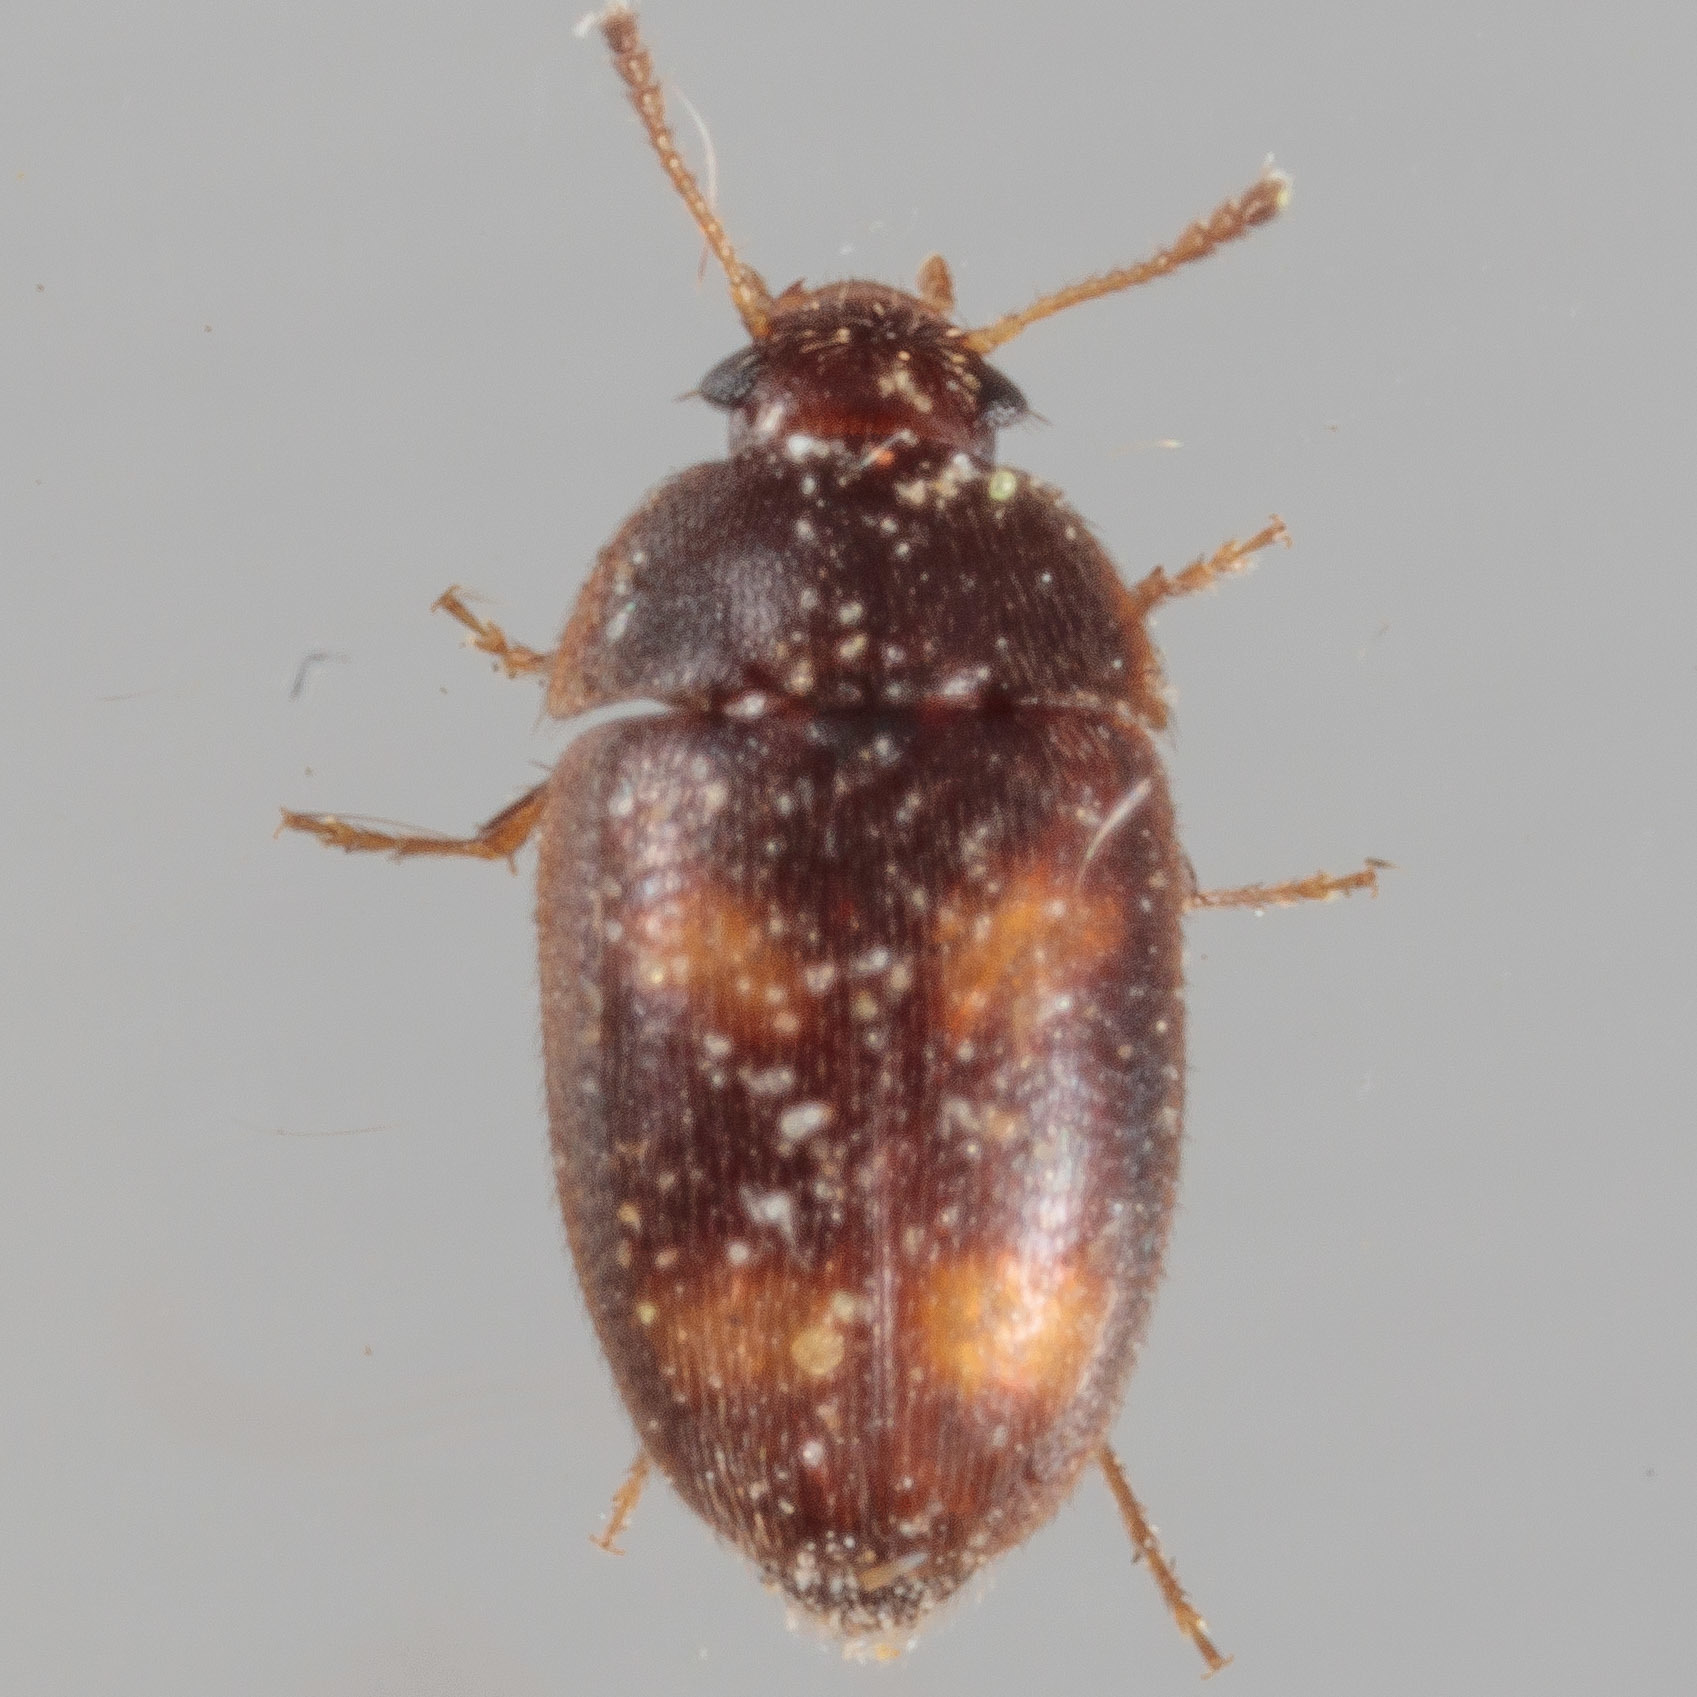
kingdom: Animalia
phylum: Arthropoda
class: Insecta
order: Coleoptera
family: Mycetophagidae
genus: Litargus
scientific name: Litargus tetraspilotus
